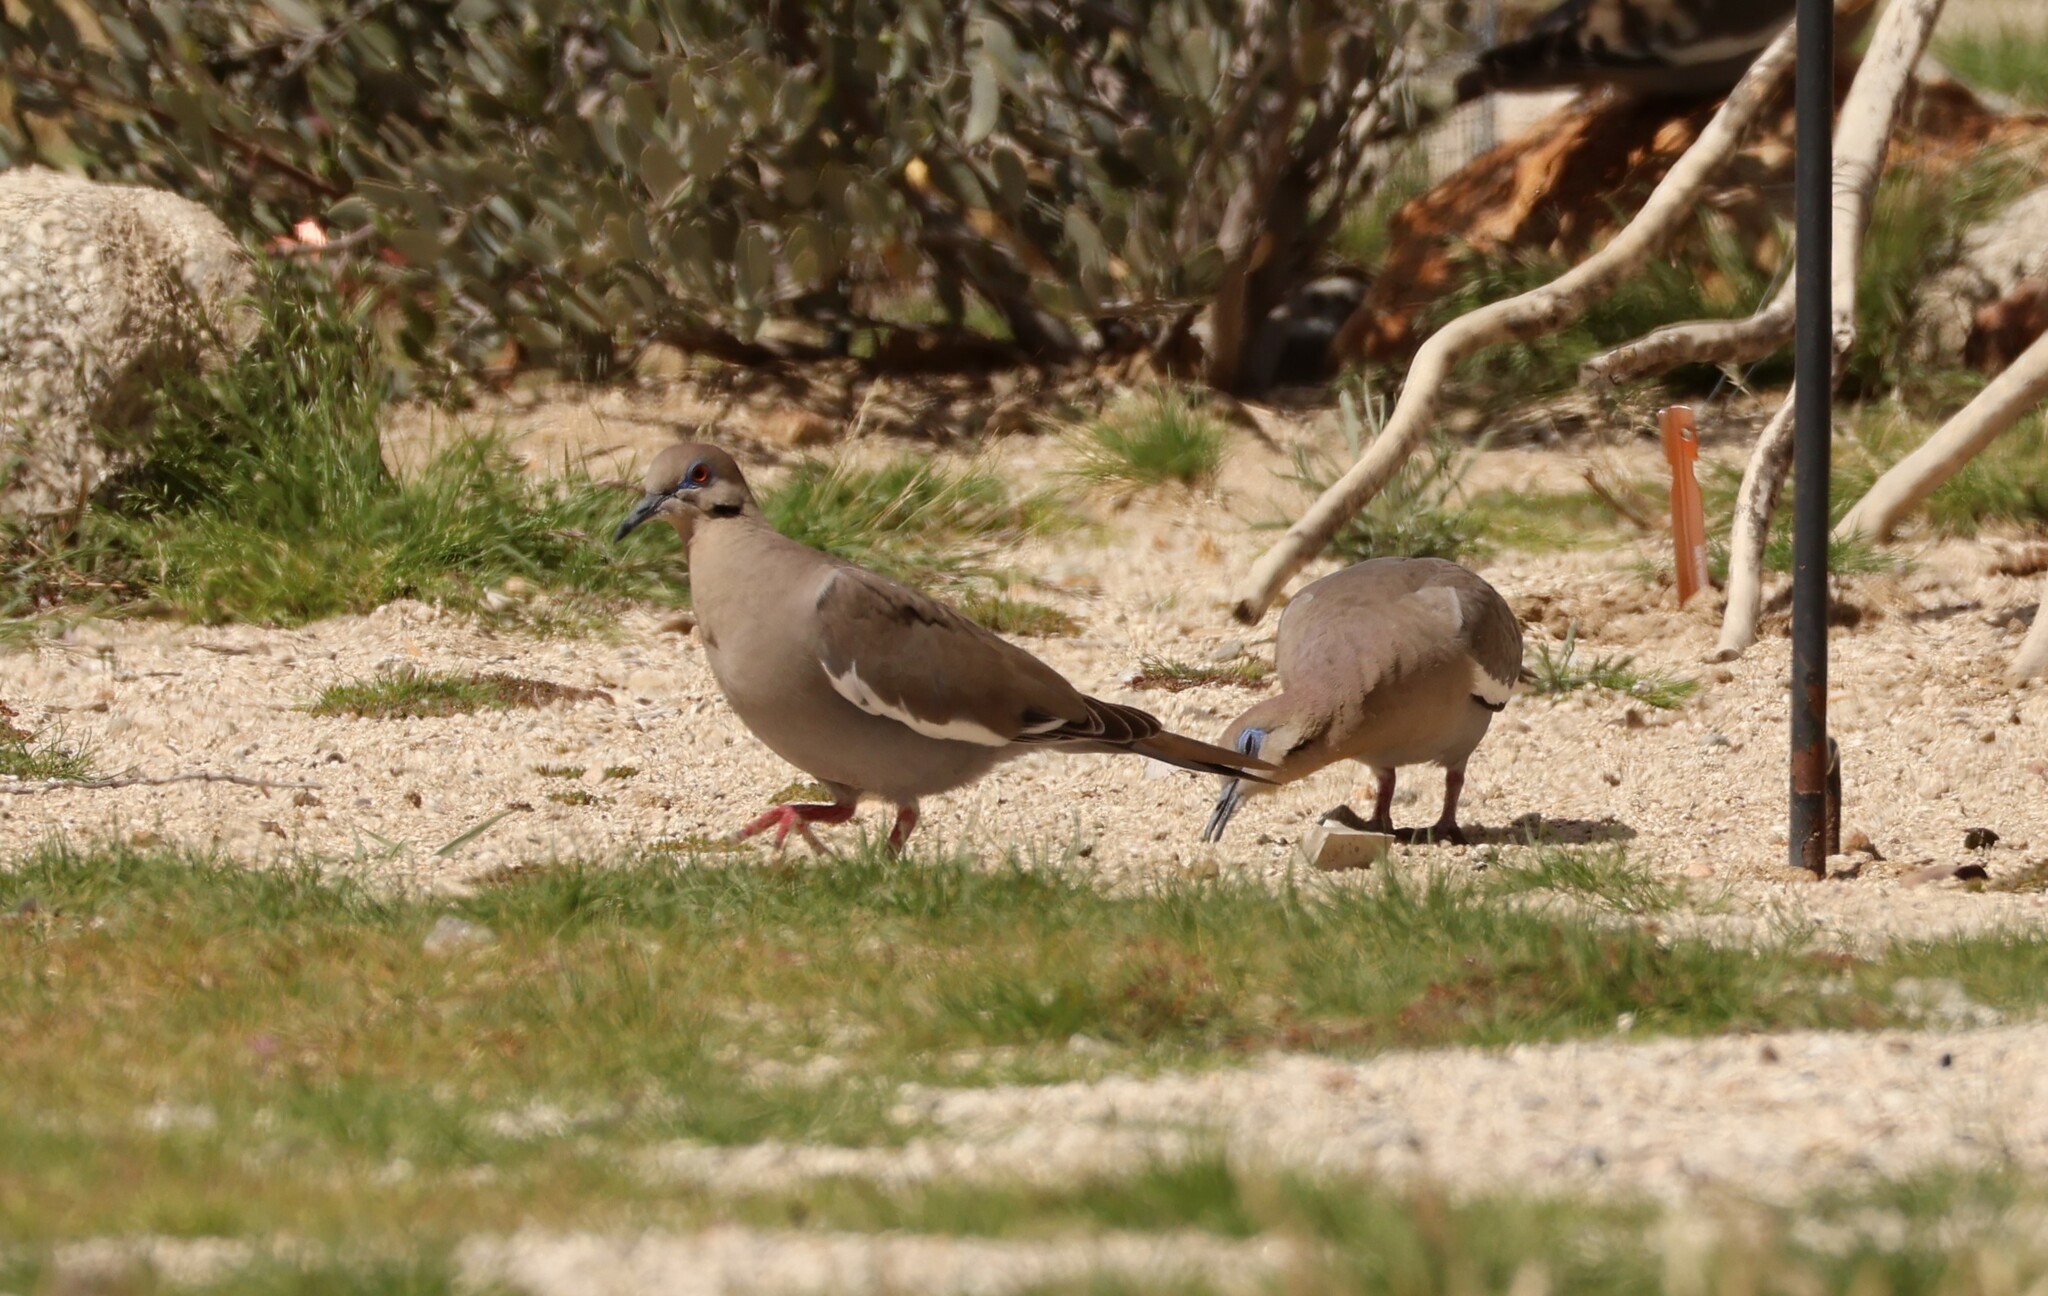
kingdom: Animalia
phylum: Chordata
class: Aves
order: Columbiformes
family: Columbidae
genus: Zenaida
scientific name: Zenaida asiatica
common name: White-winged dove
